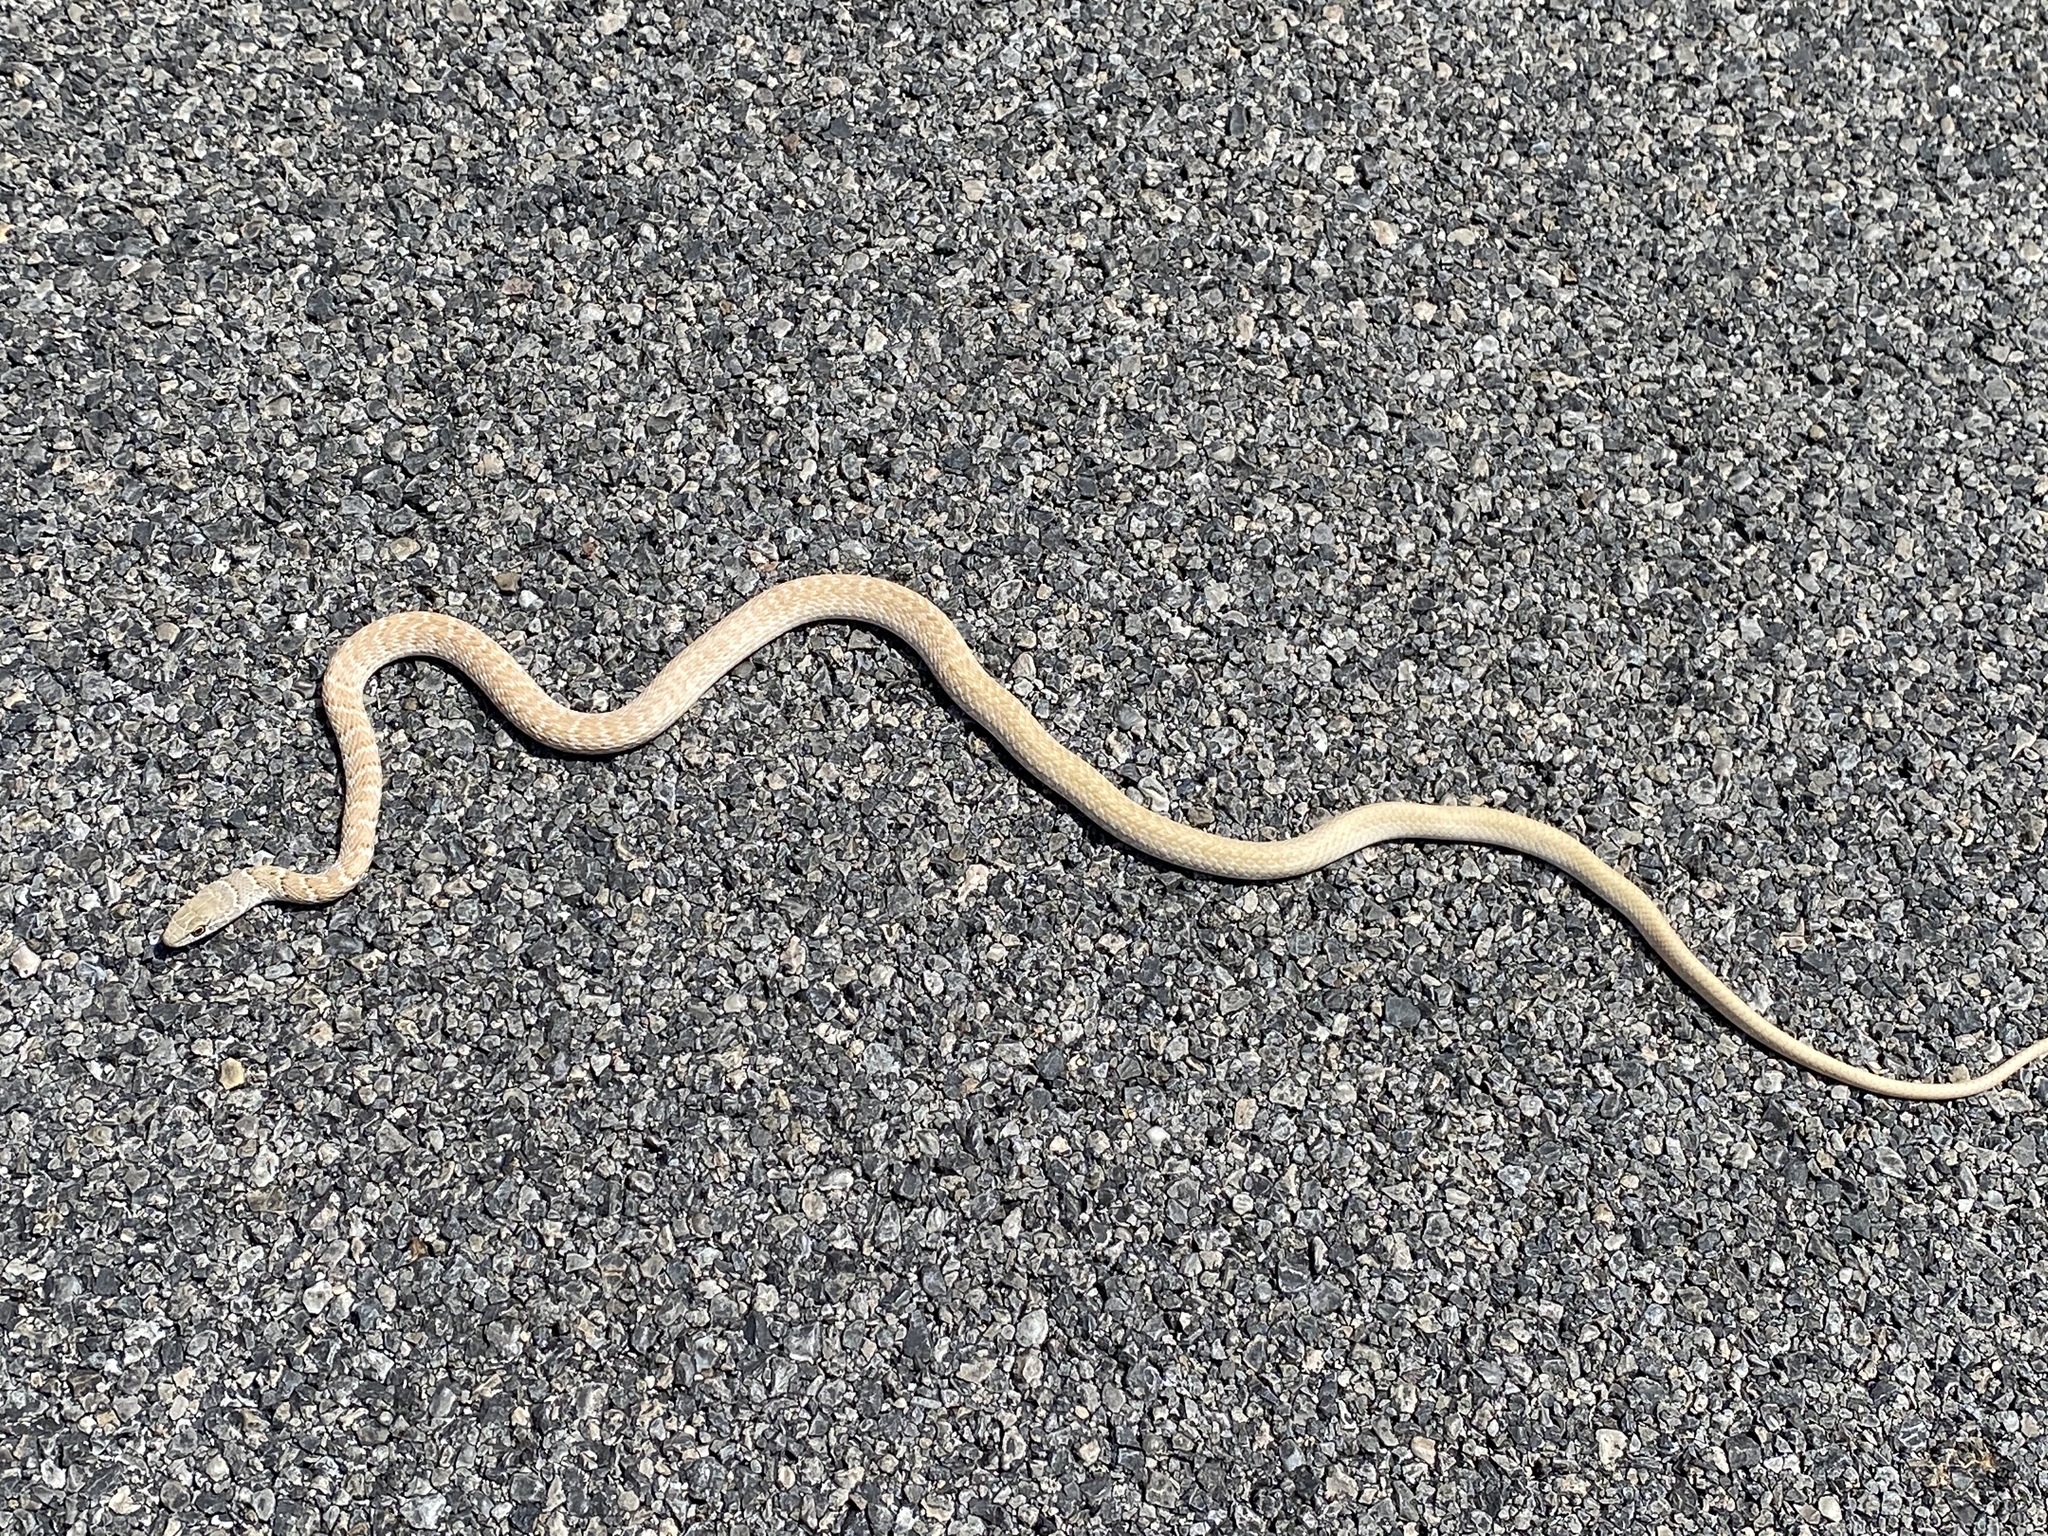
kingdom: Animalia
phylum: Chordata
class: Squamata
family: Colubridae
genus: Masticophis
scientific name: Masticophis flagellum
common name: Coachwhip
